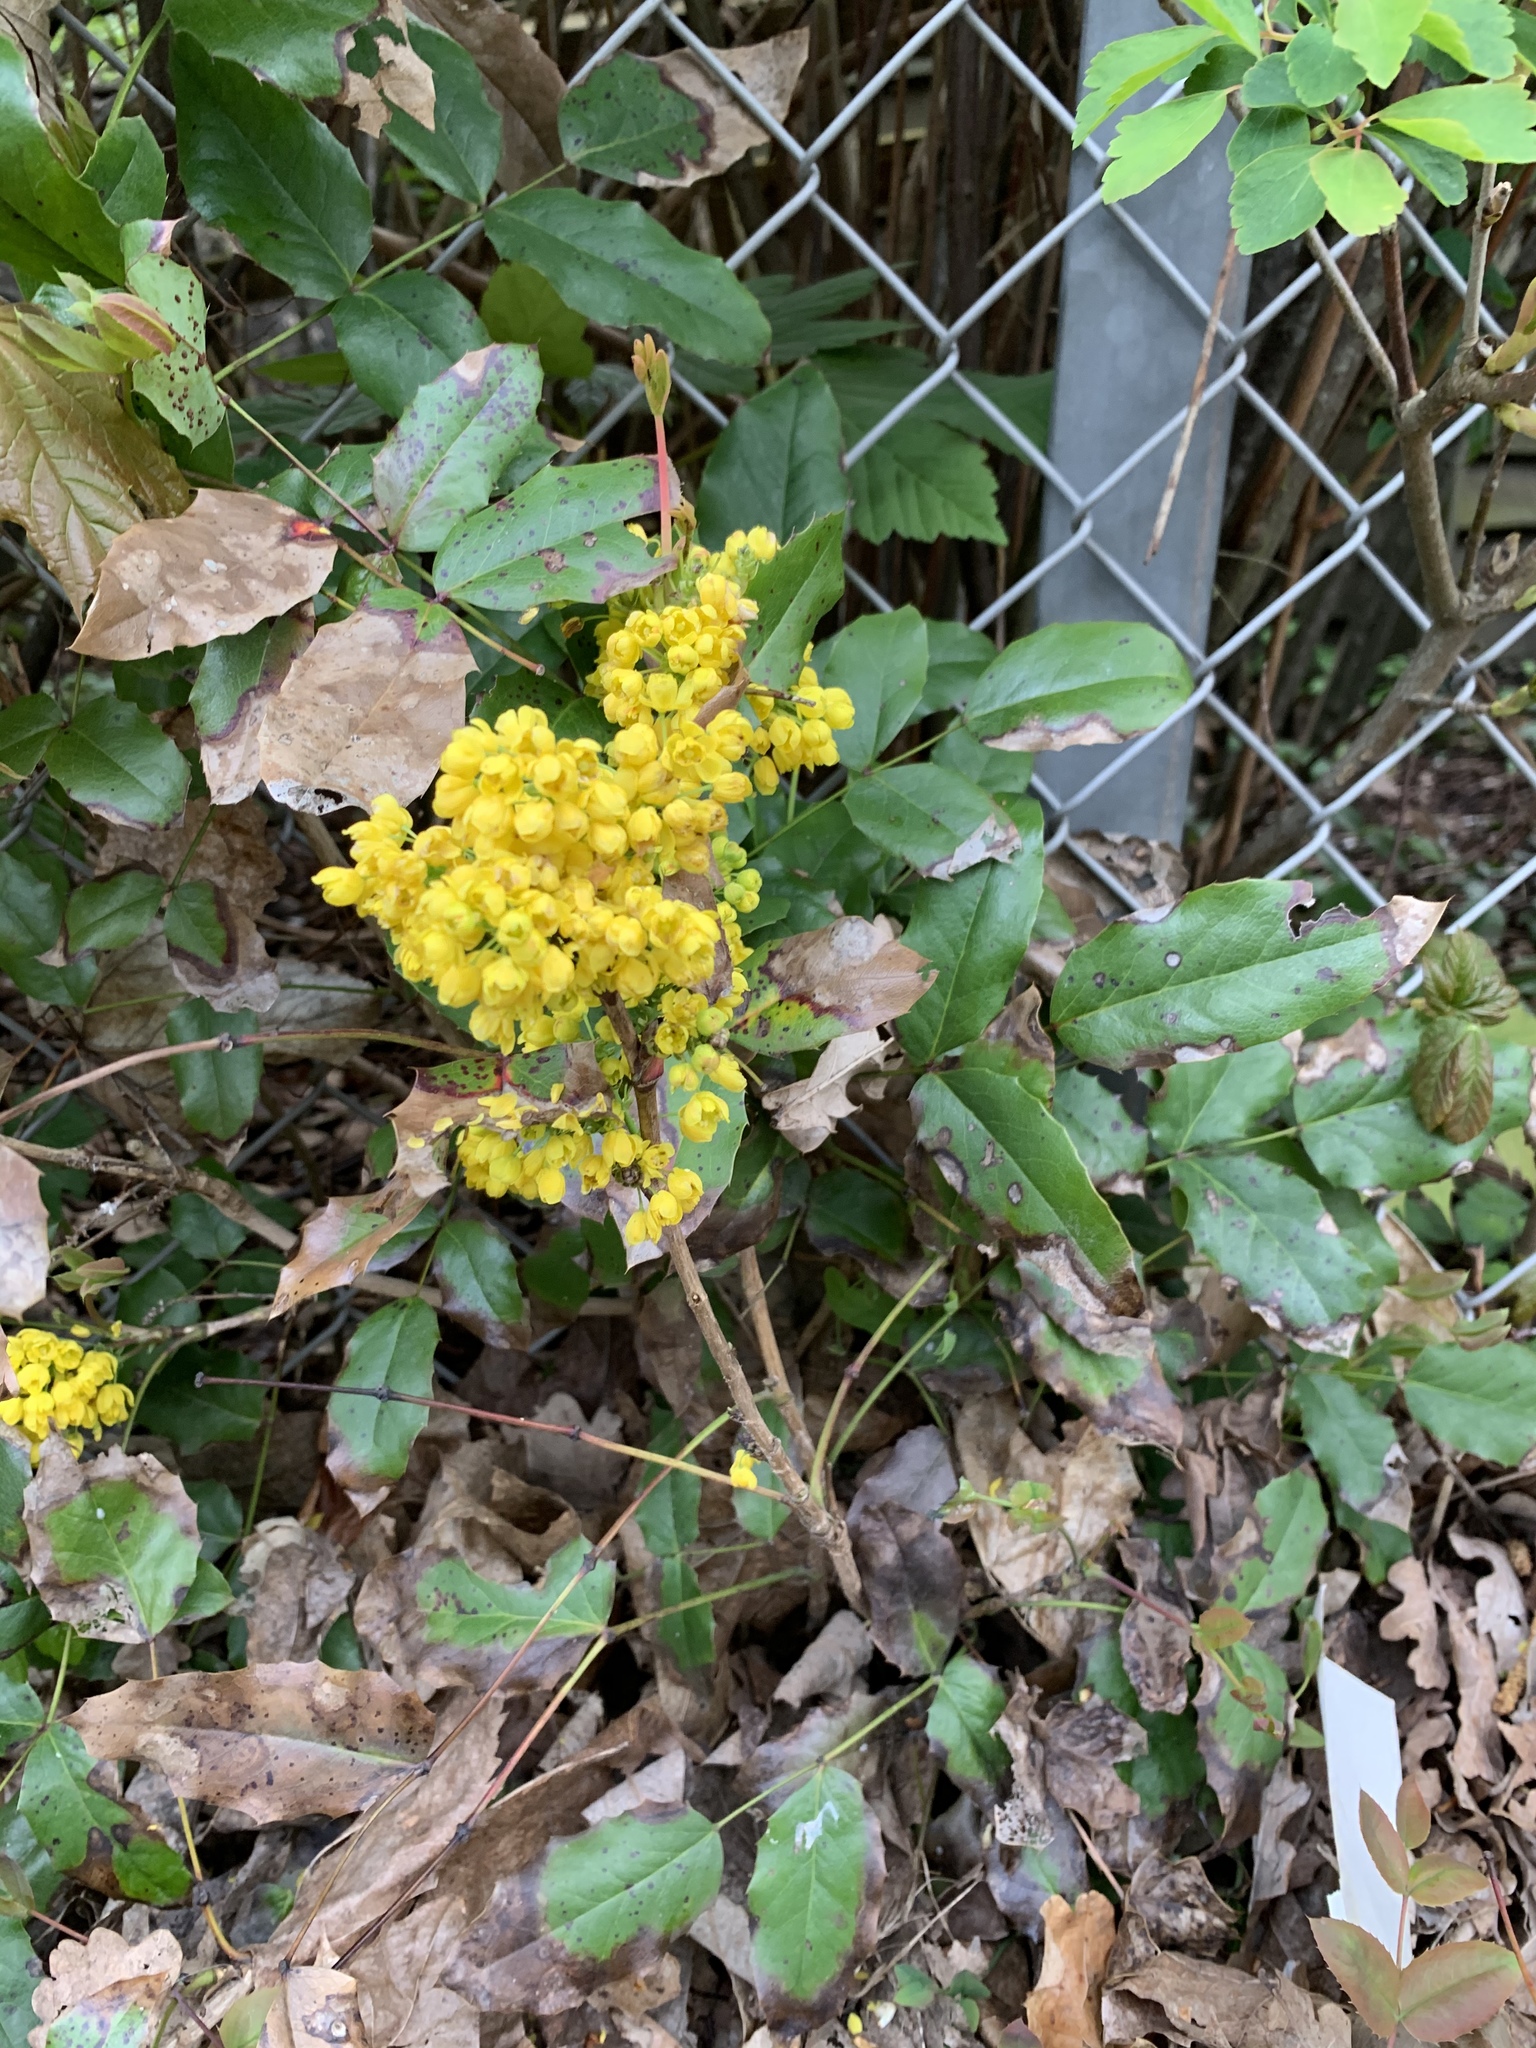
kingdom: Plantae
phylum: Tracheophyta
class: Magnoliopsida
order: Ranunculales
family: Berberidaceae
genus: Mahonia
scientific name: Mahonia aquifolium
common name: Oregon-grape
